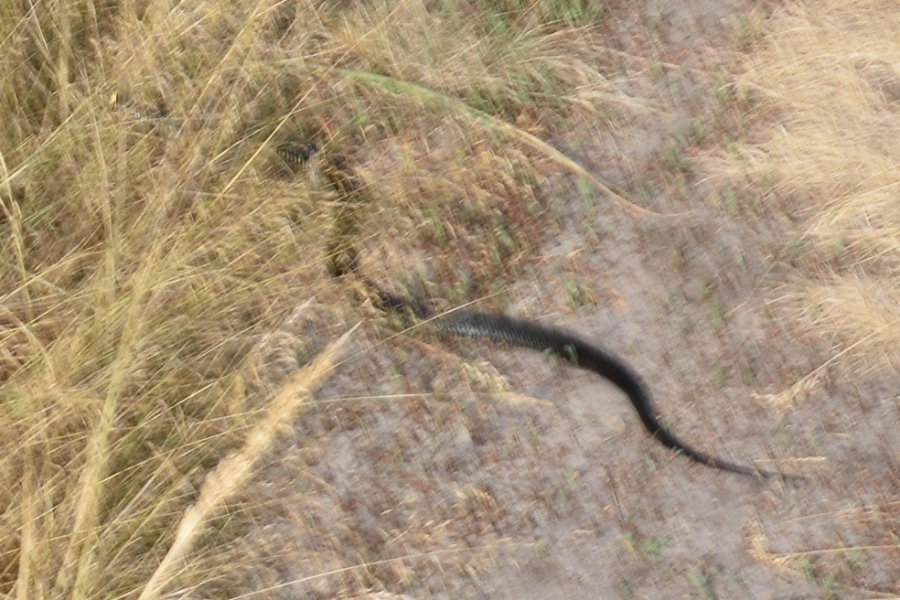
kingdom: Animalia
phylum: Chordata
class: Squamata
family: Colubridae
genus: Natrix
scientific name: Natrix natrix
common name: Grass snake
